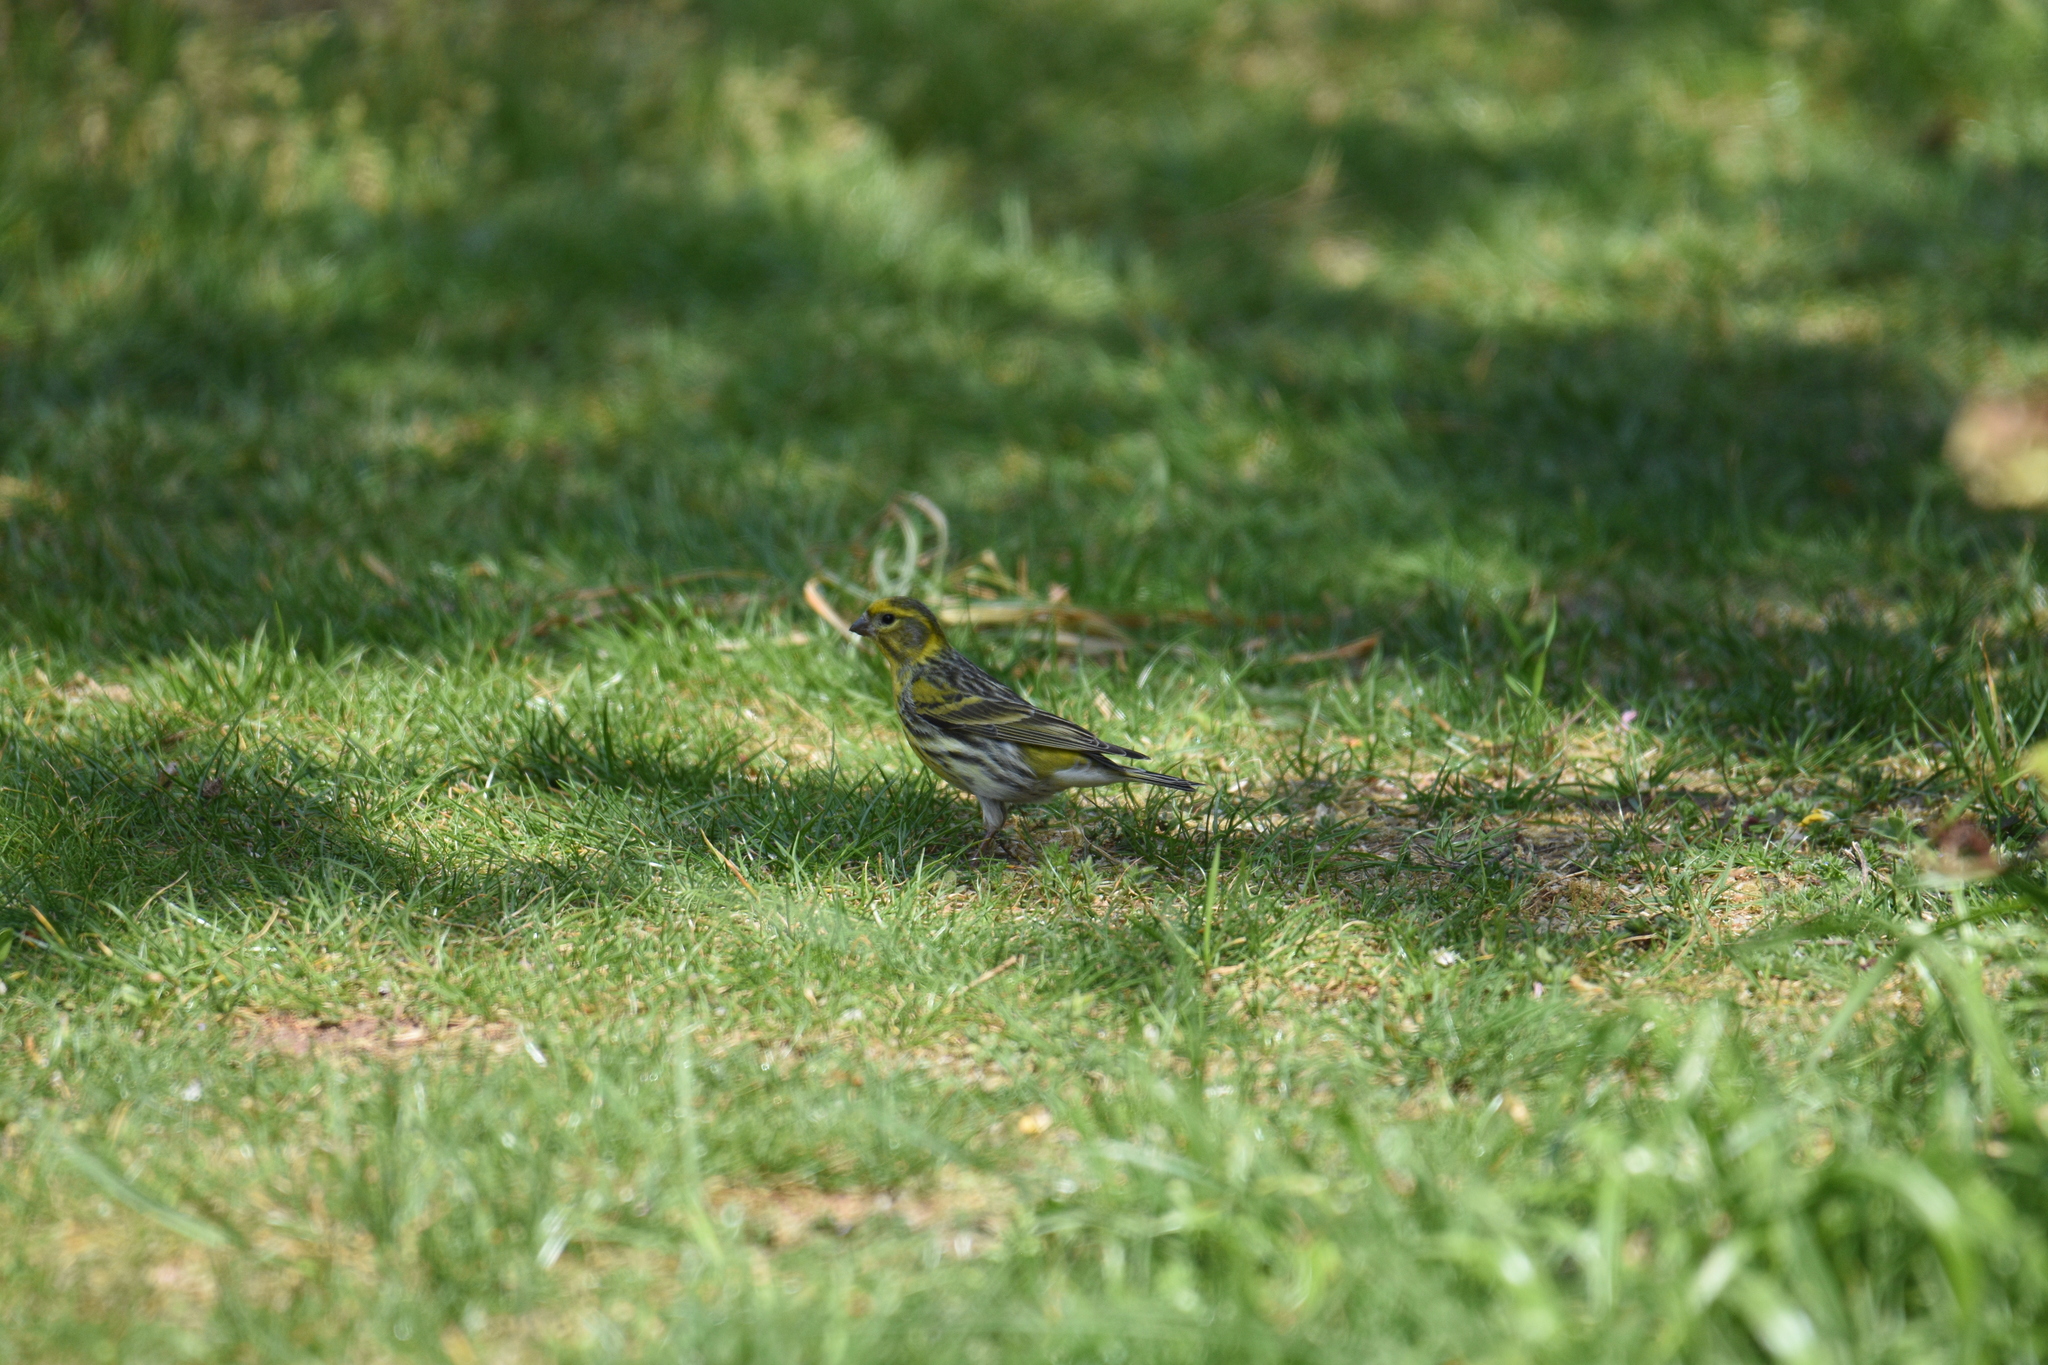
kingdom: Animalia
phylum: Chordata
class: Aves
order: Passeriformes
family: Fringillidae
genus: Serinus
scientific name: Serinus serinus
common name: European serin
